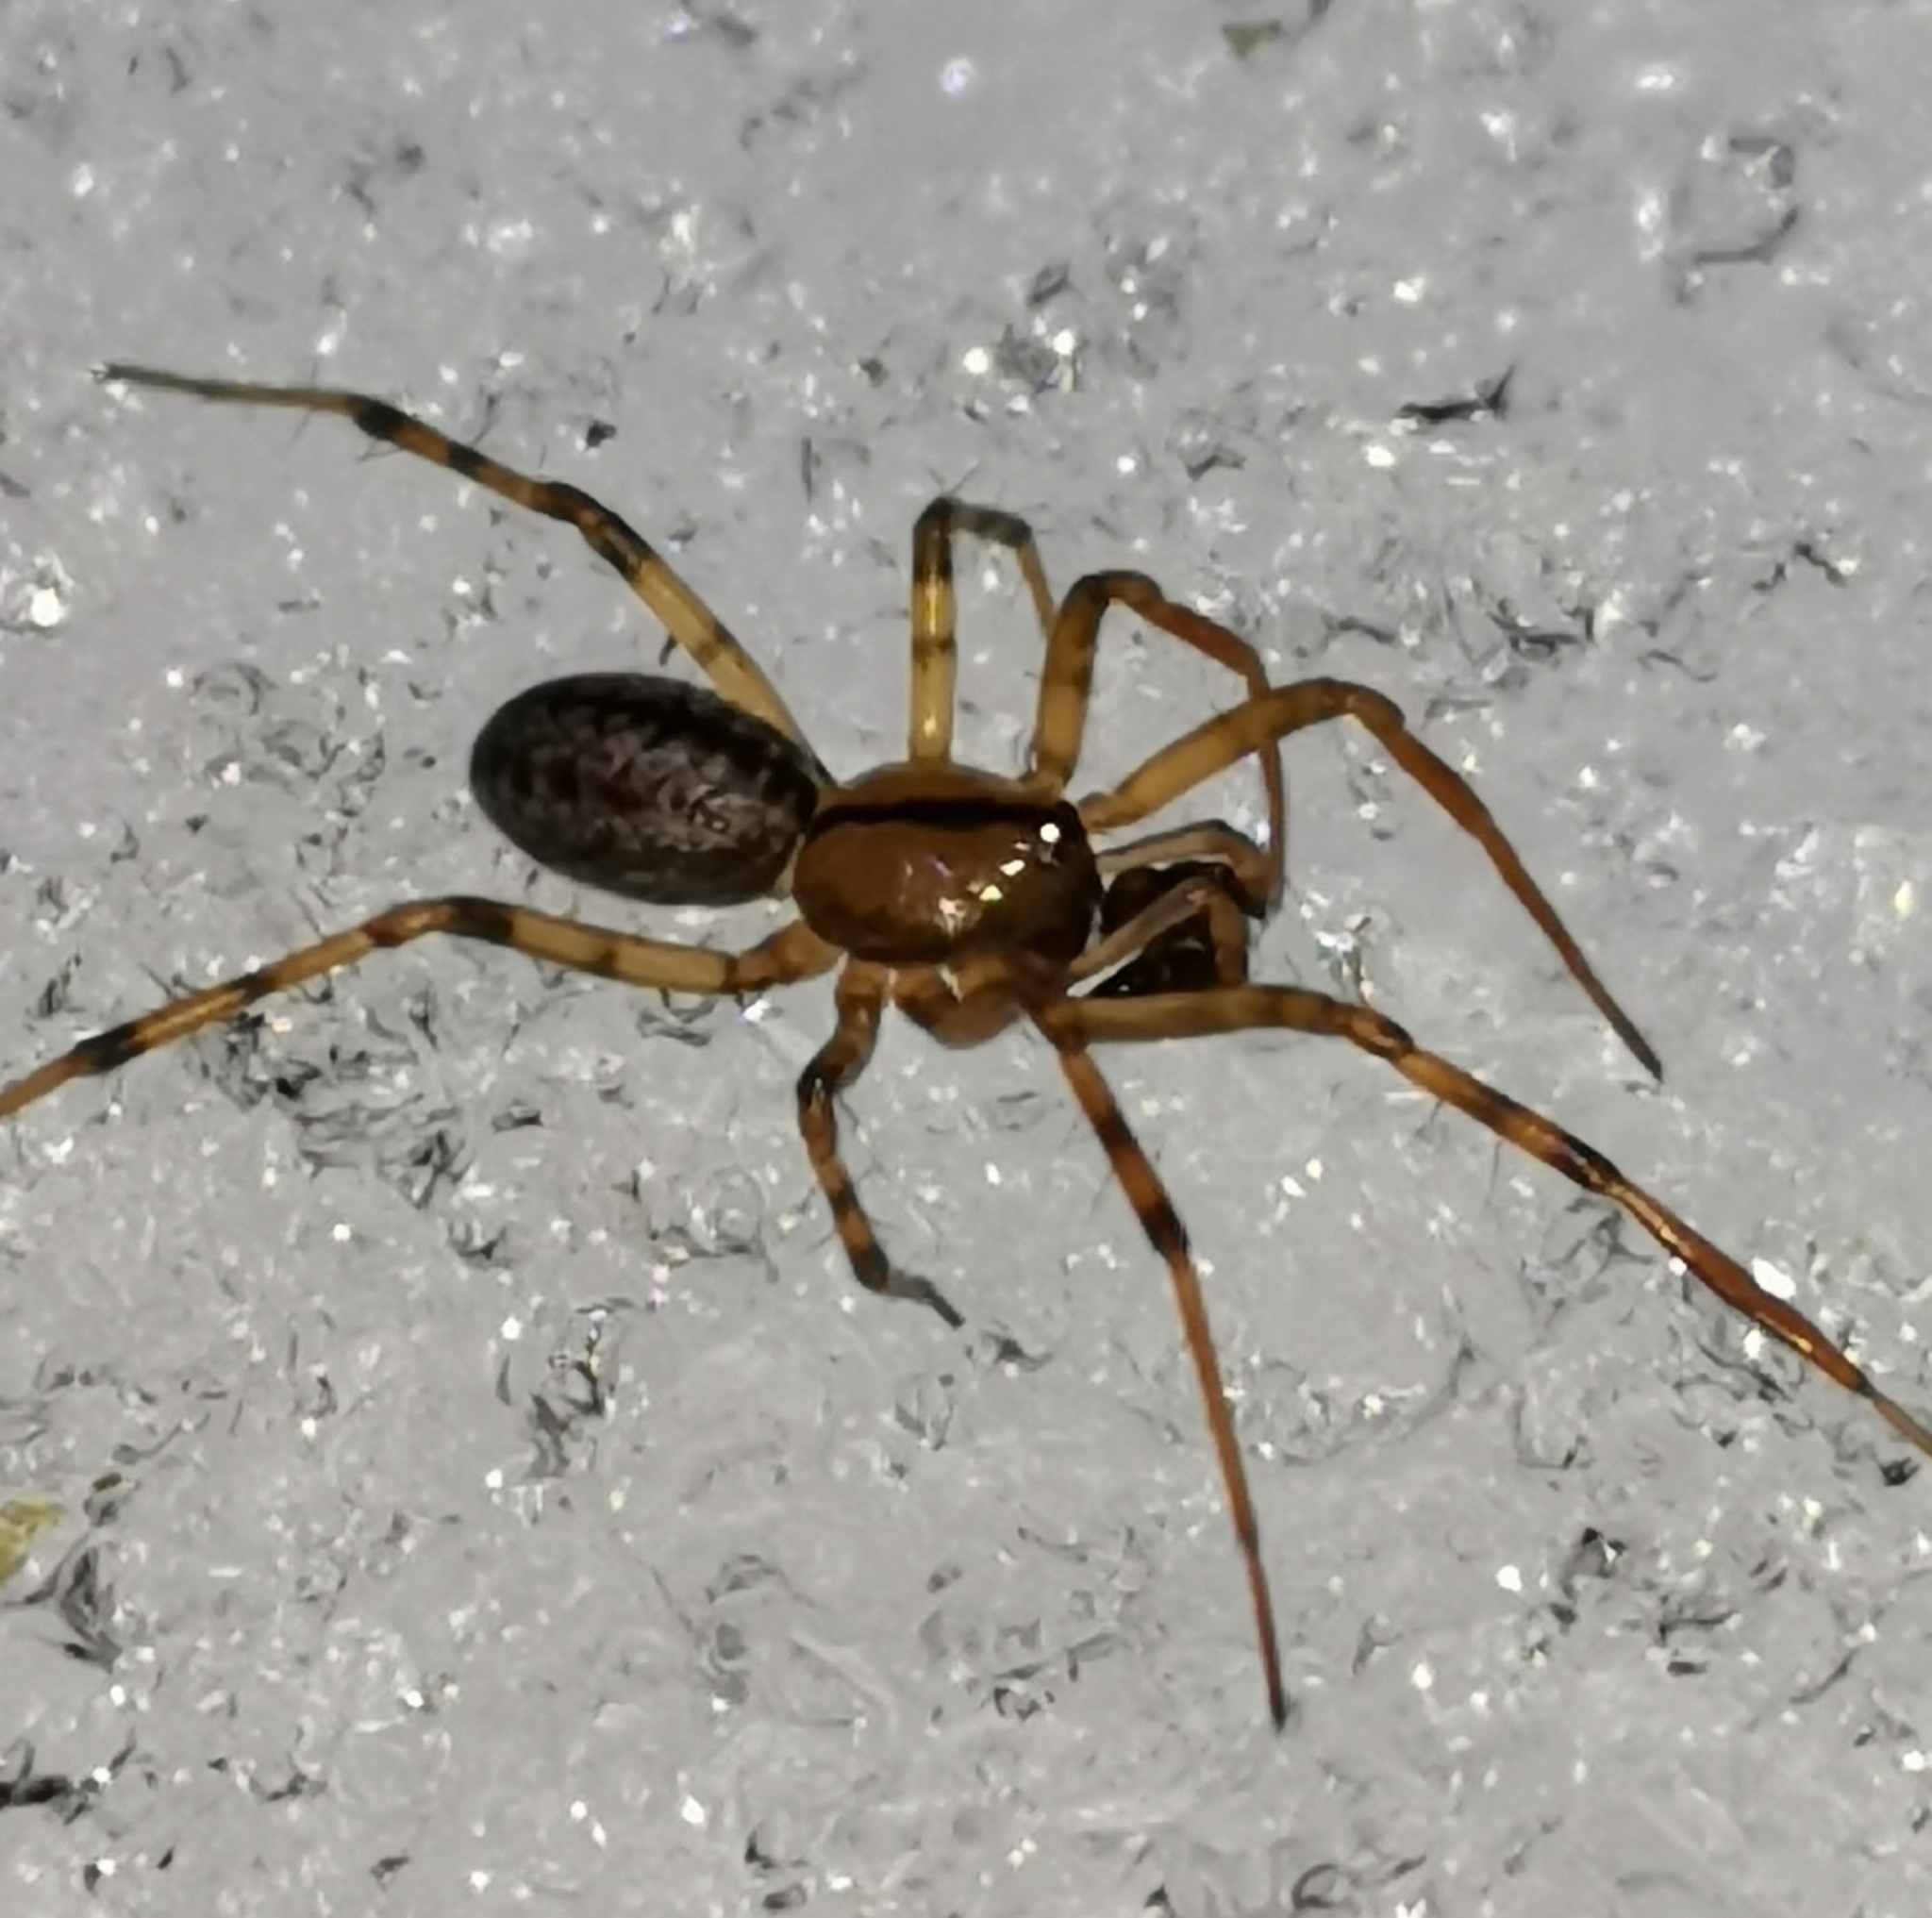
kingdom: Animalia
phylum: Arthropoda
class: Arachnida
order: Araneae
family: Linyphiidae
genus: Stemonyphantes
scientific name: Stemonyphantes lineatus
